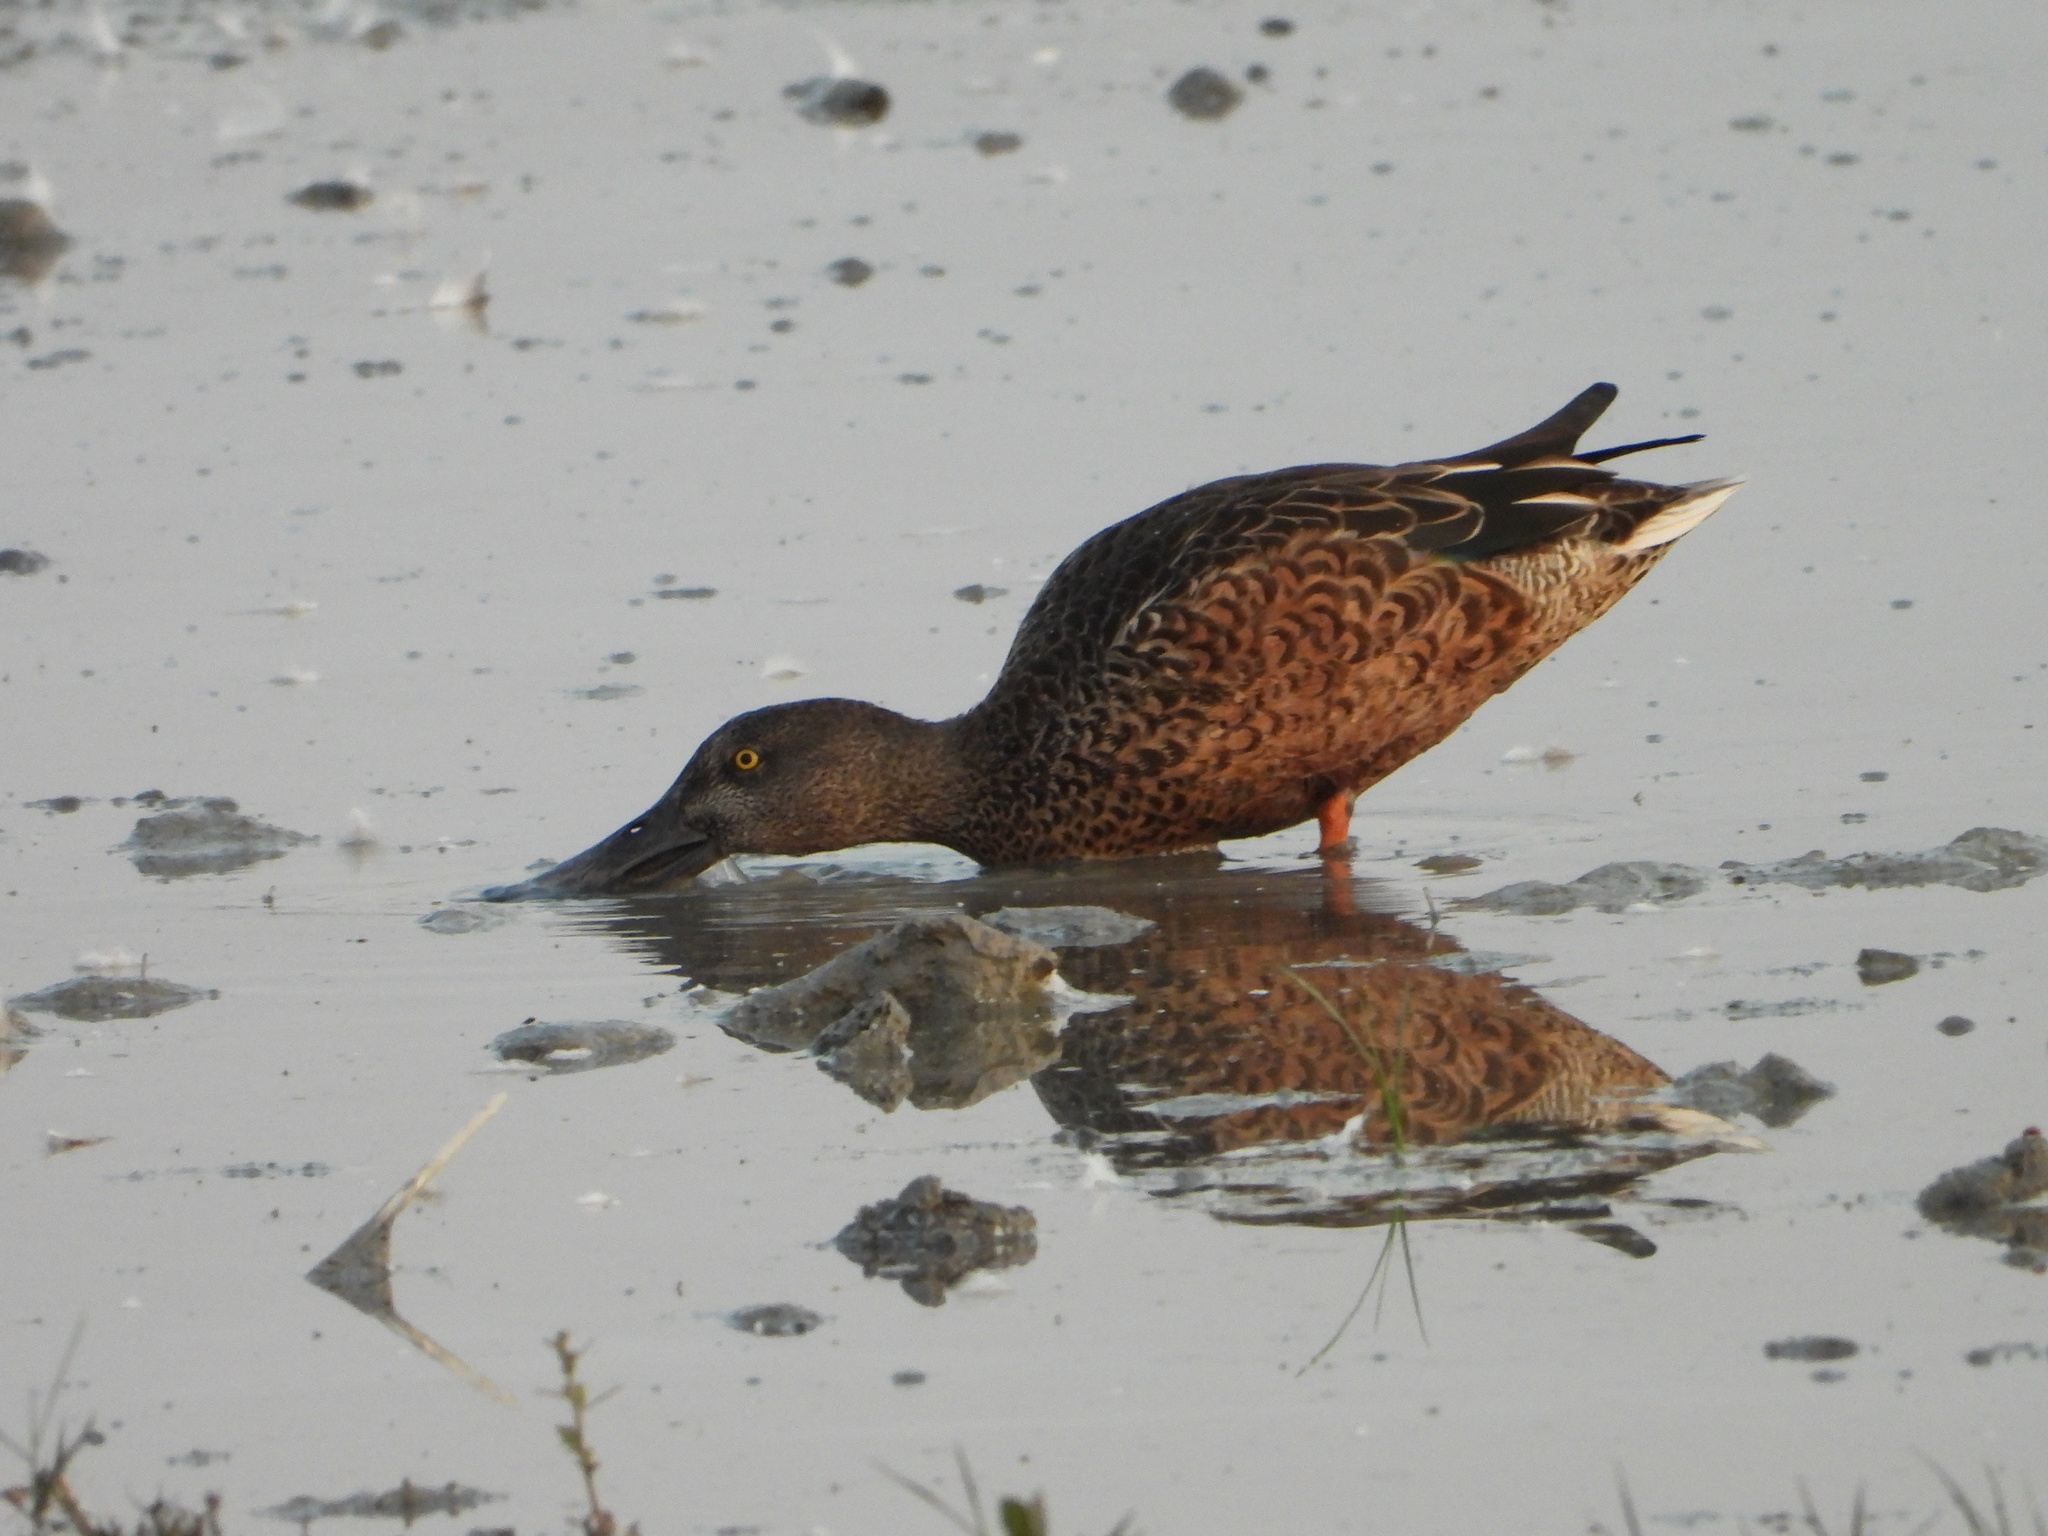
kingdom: Animalia
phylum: Chordata
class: Aves
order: Anseriformes
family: Anatidae
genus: Spatula
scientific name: Spatula clypeata
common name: Northern shoveler
